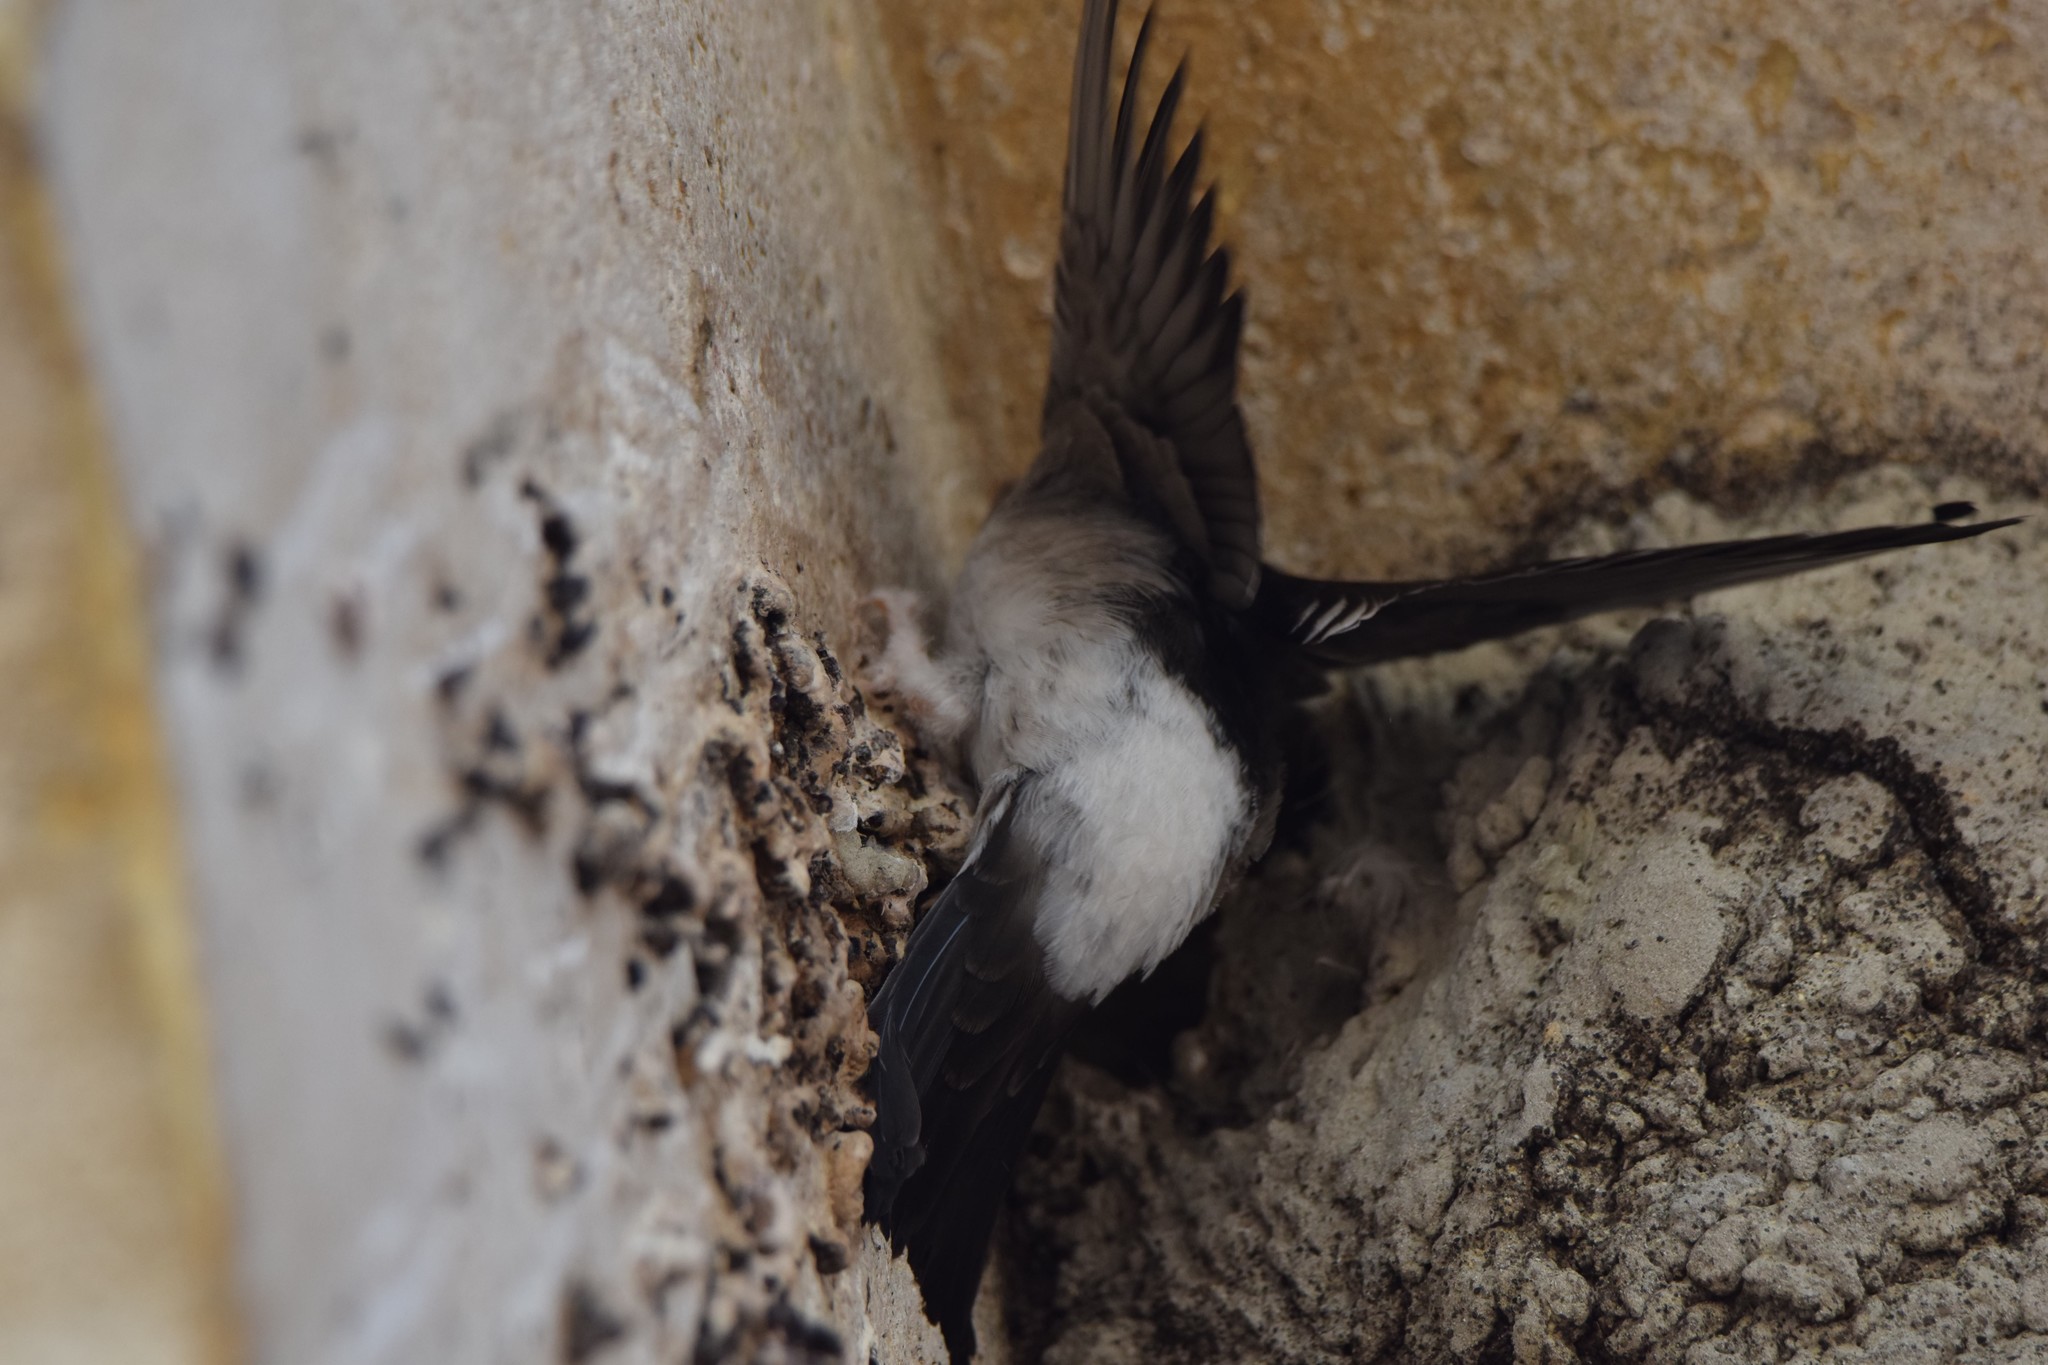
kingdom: Animalia
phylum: Chordata
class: Aves
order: Passeriformes
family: Hirundinidae
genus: Delichon
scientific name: Delichon urbicum
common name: Common house martin
